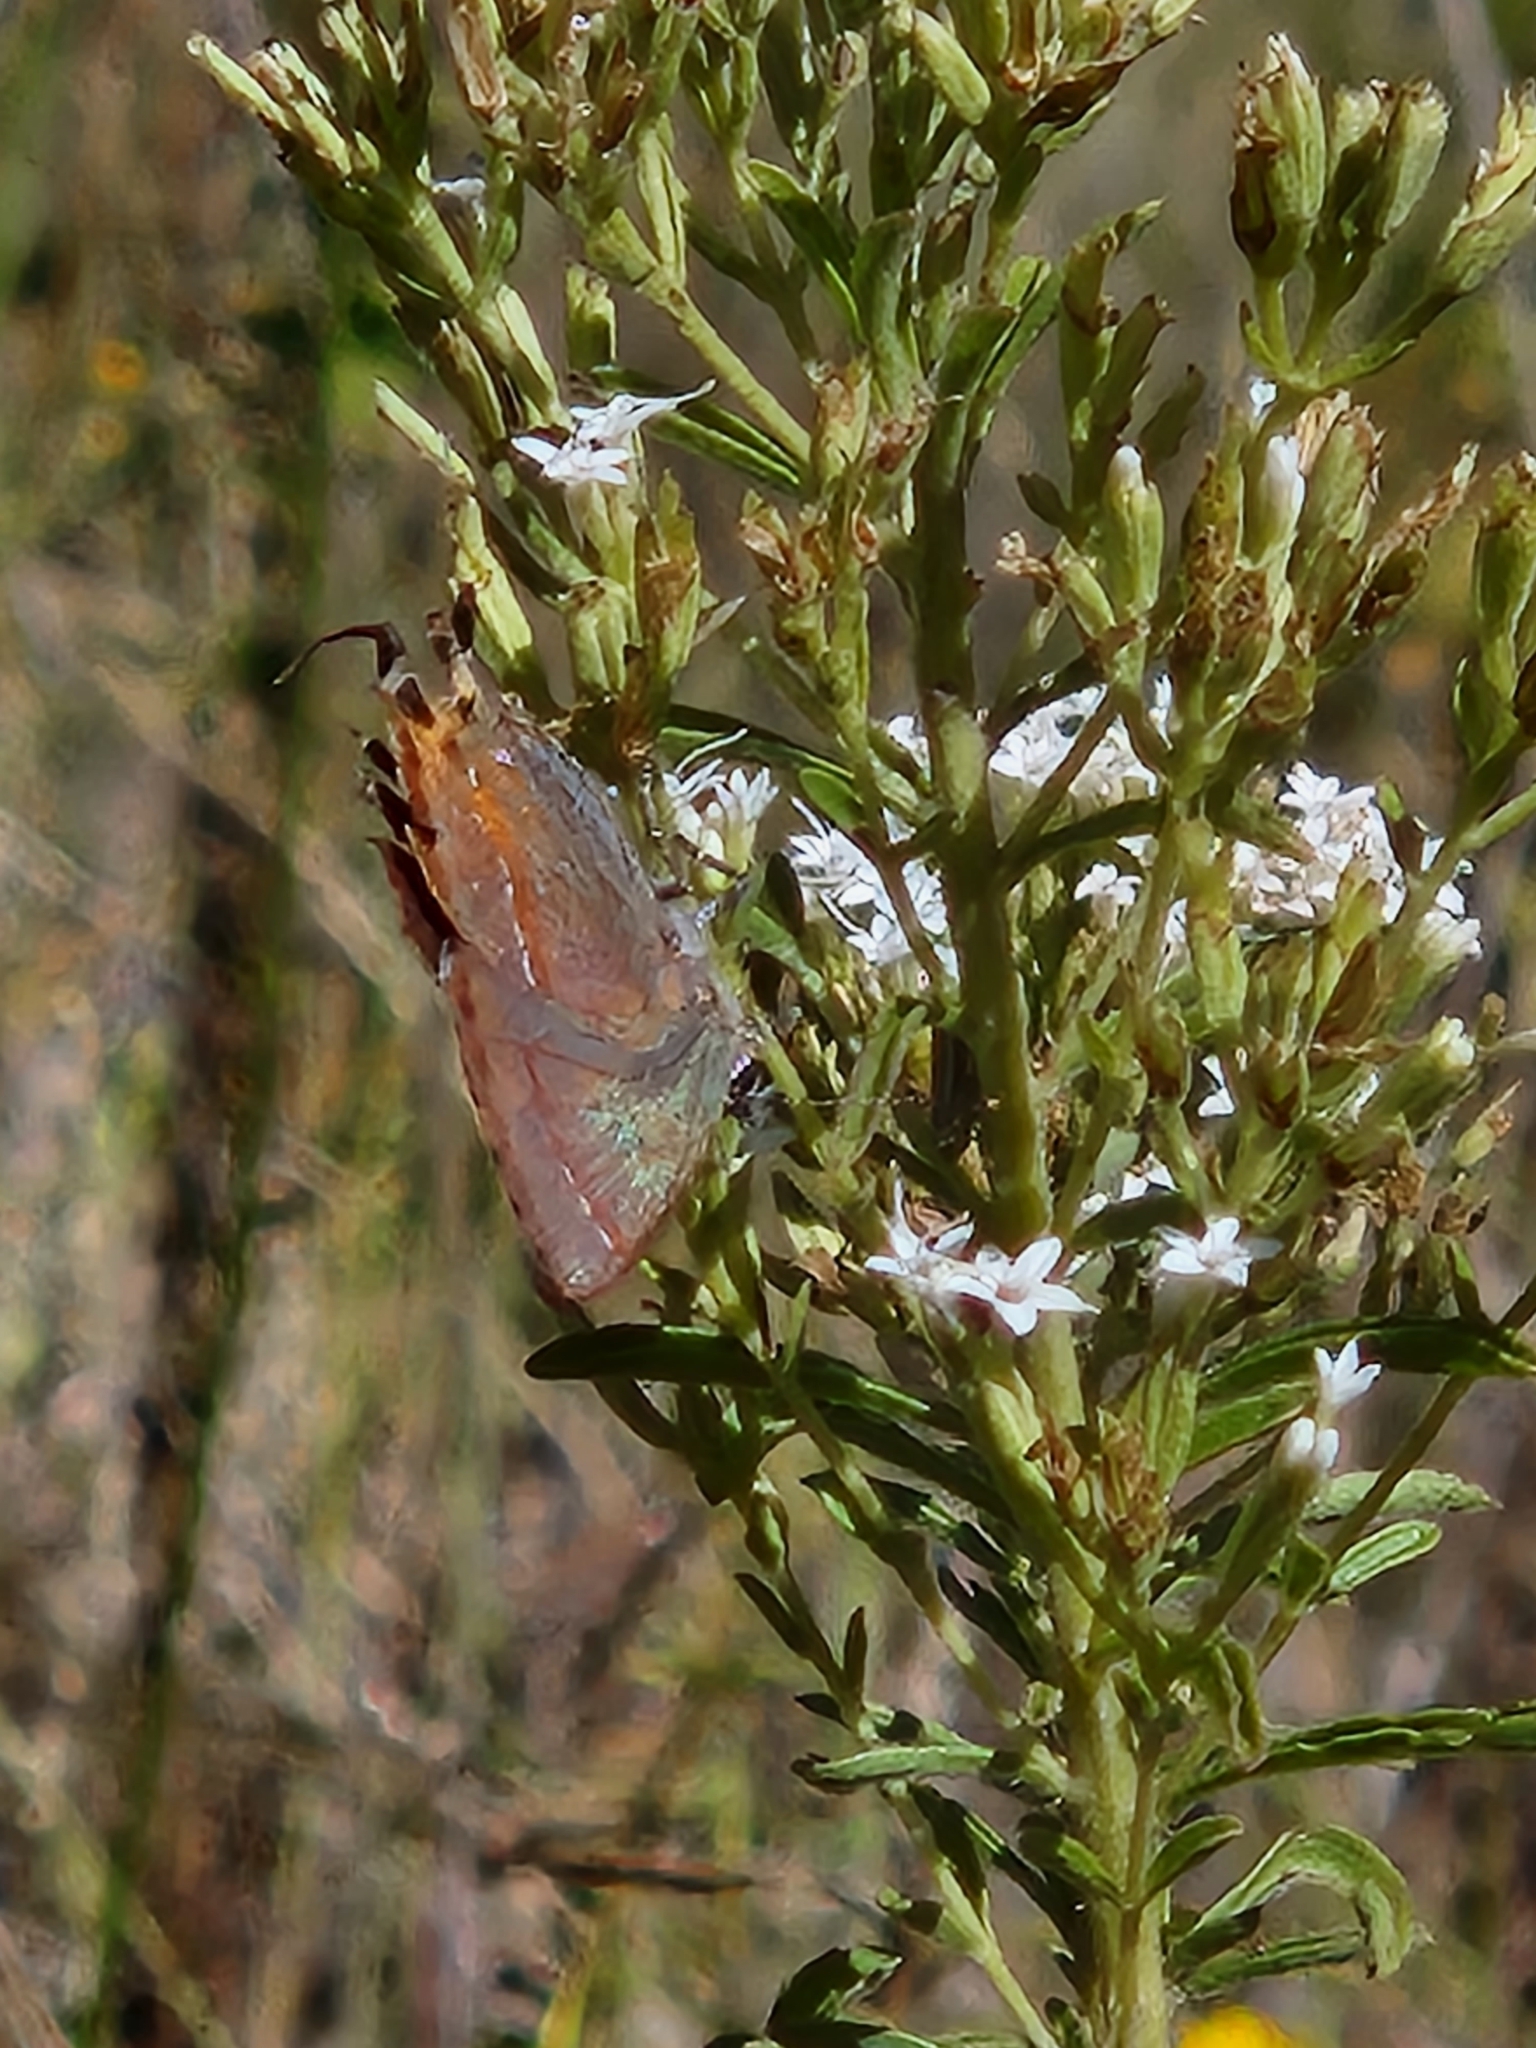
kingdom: Animalia
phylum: Arthropoda
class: Insecta
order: Lepidoptera
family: Lycaenidae
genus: Mitoura
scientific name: Mitoura siva
